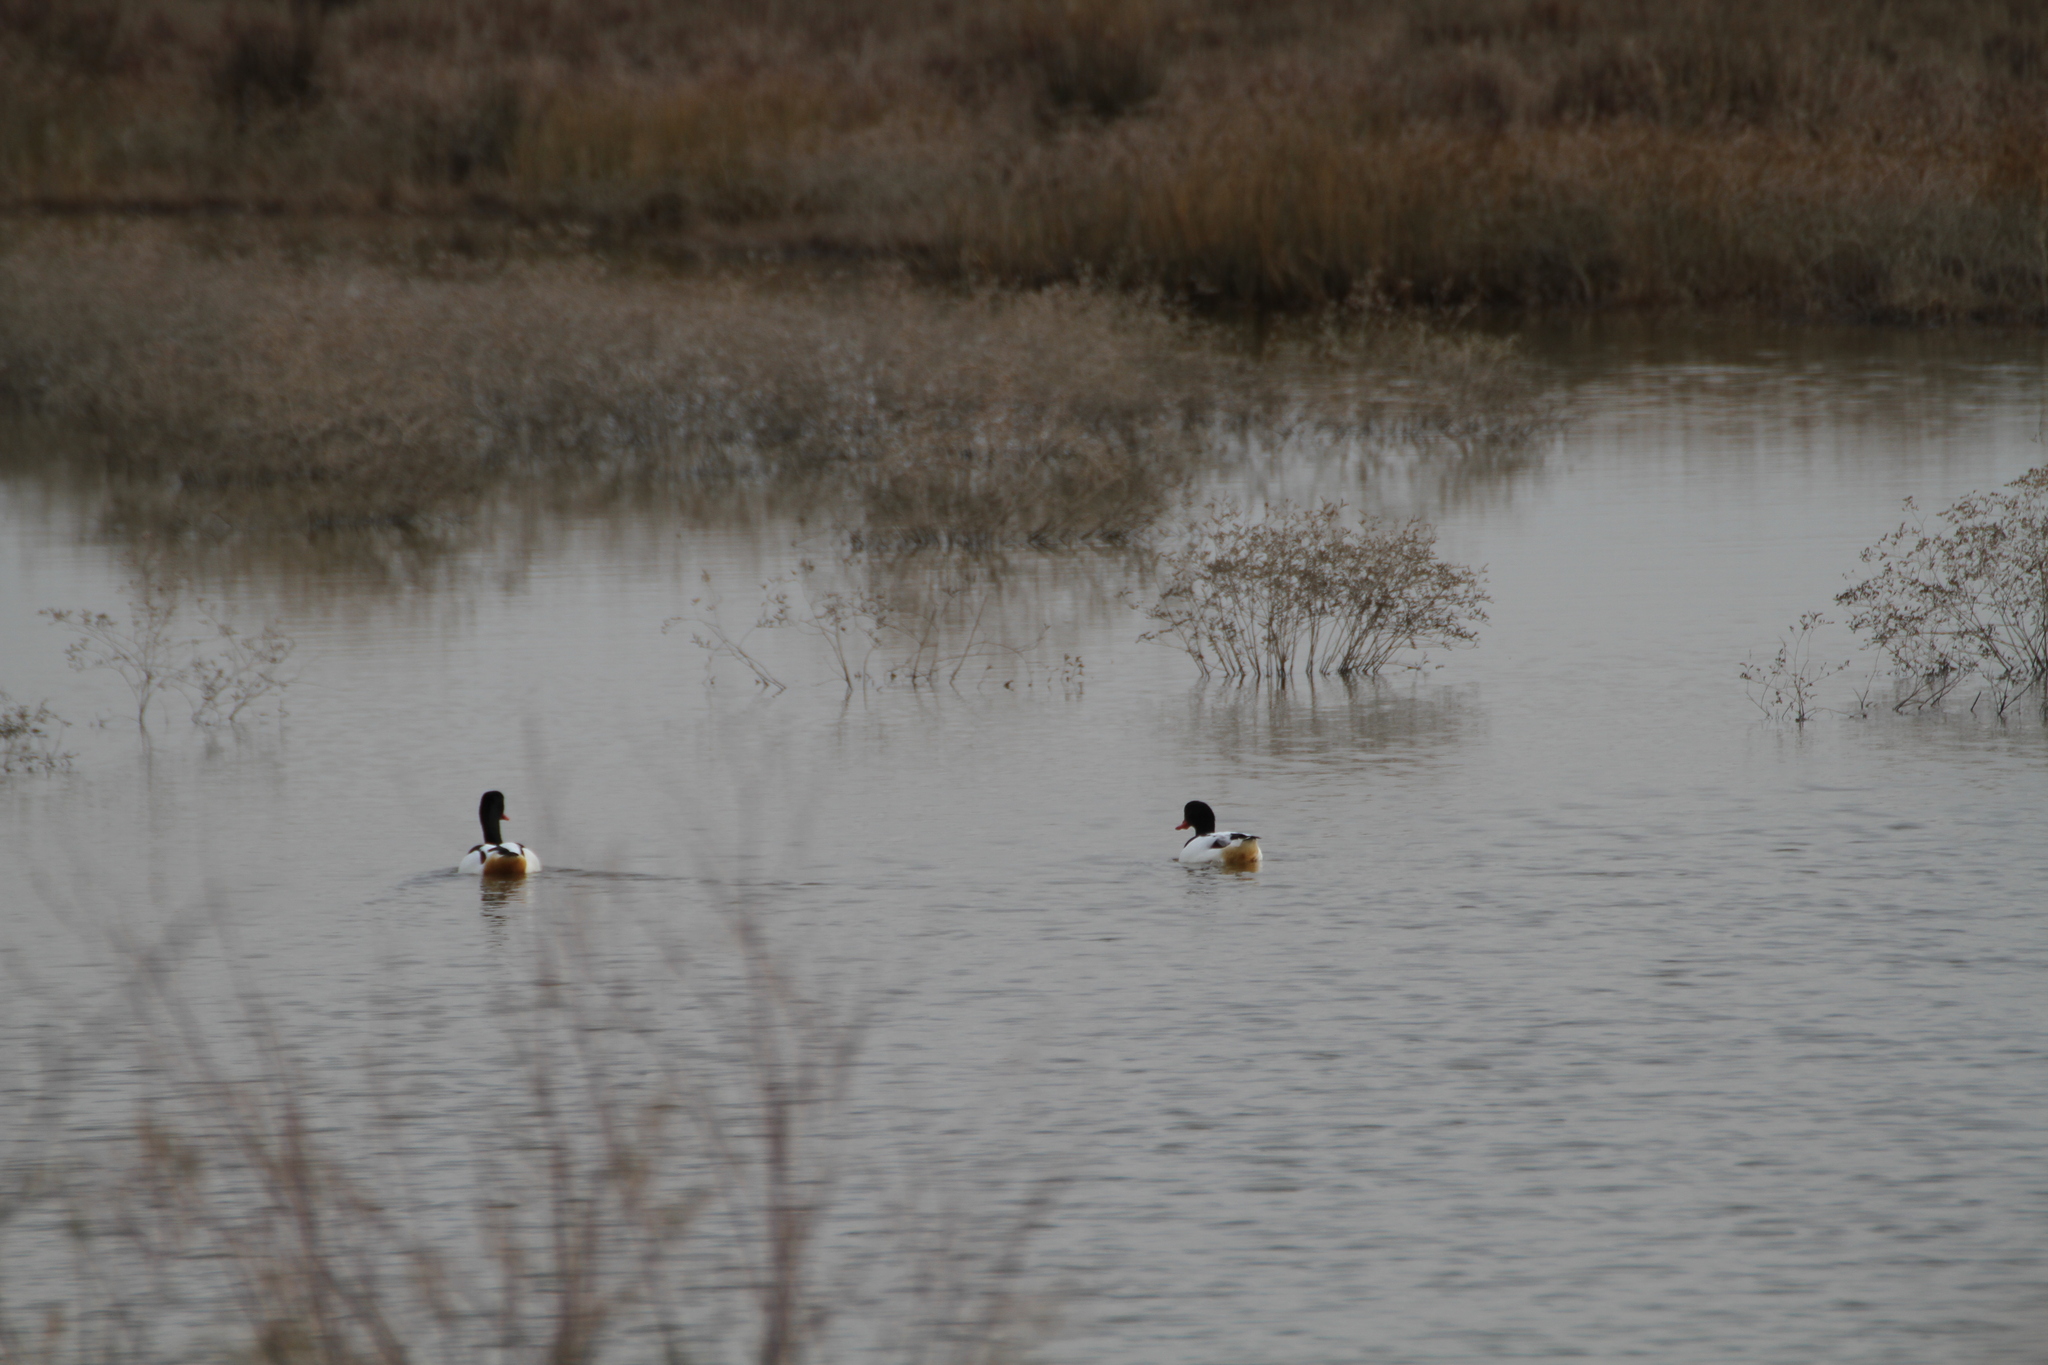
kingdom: Animalia
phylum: Chordata
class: Aves
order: Anseriformes
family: Anatidae
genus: Tadorna
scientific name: Tadorna tadorna
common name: Common shelduck
